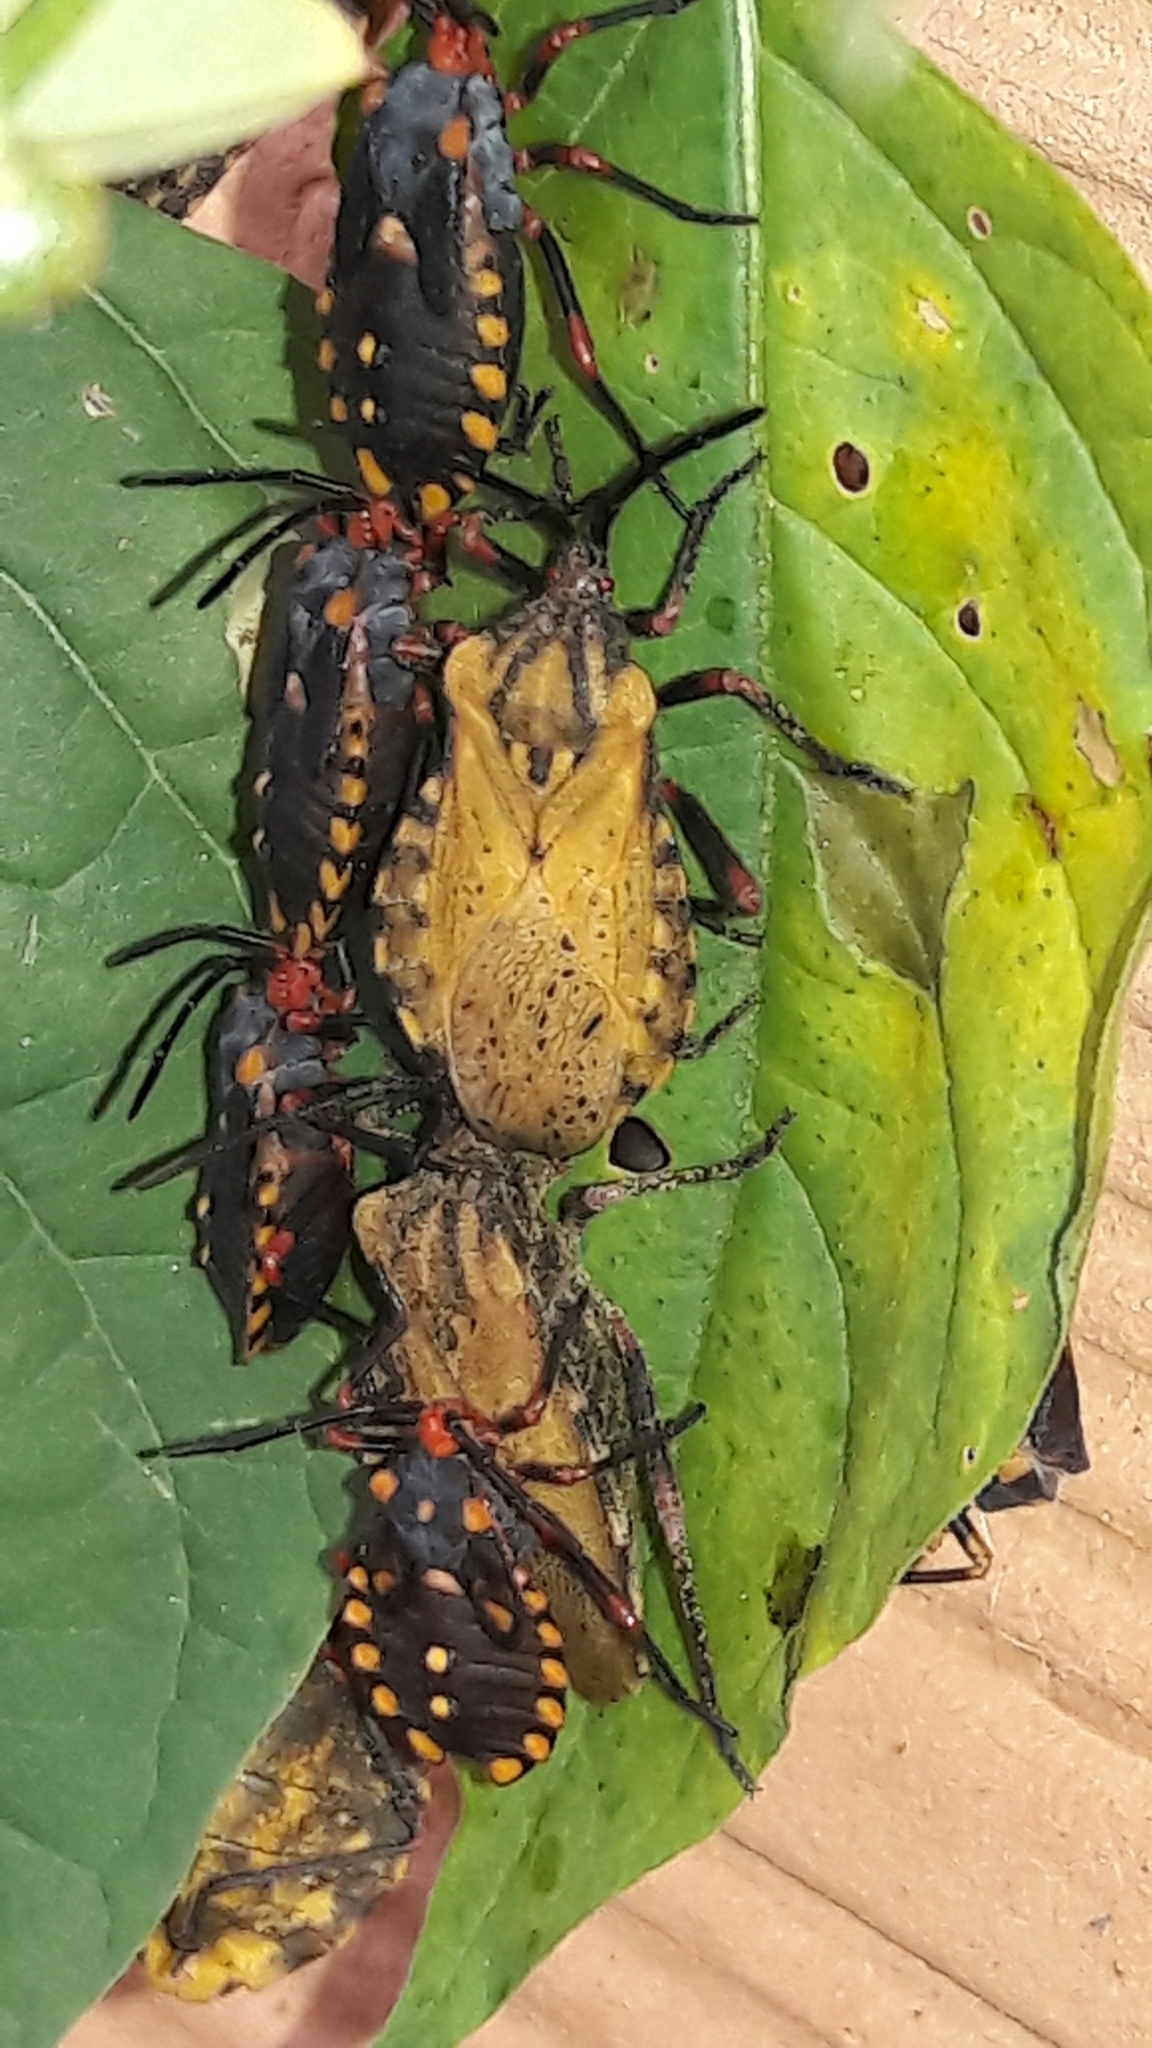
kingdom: Animalia
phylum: Arthropoda
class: Insecta
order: Hemiptera
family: Coreidae
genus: Spartocera
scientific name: Spartocera fusca
